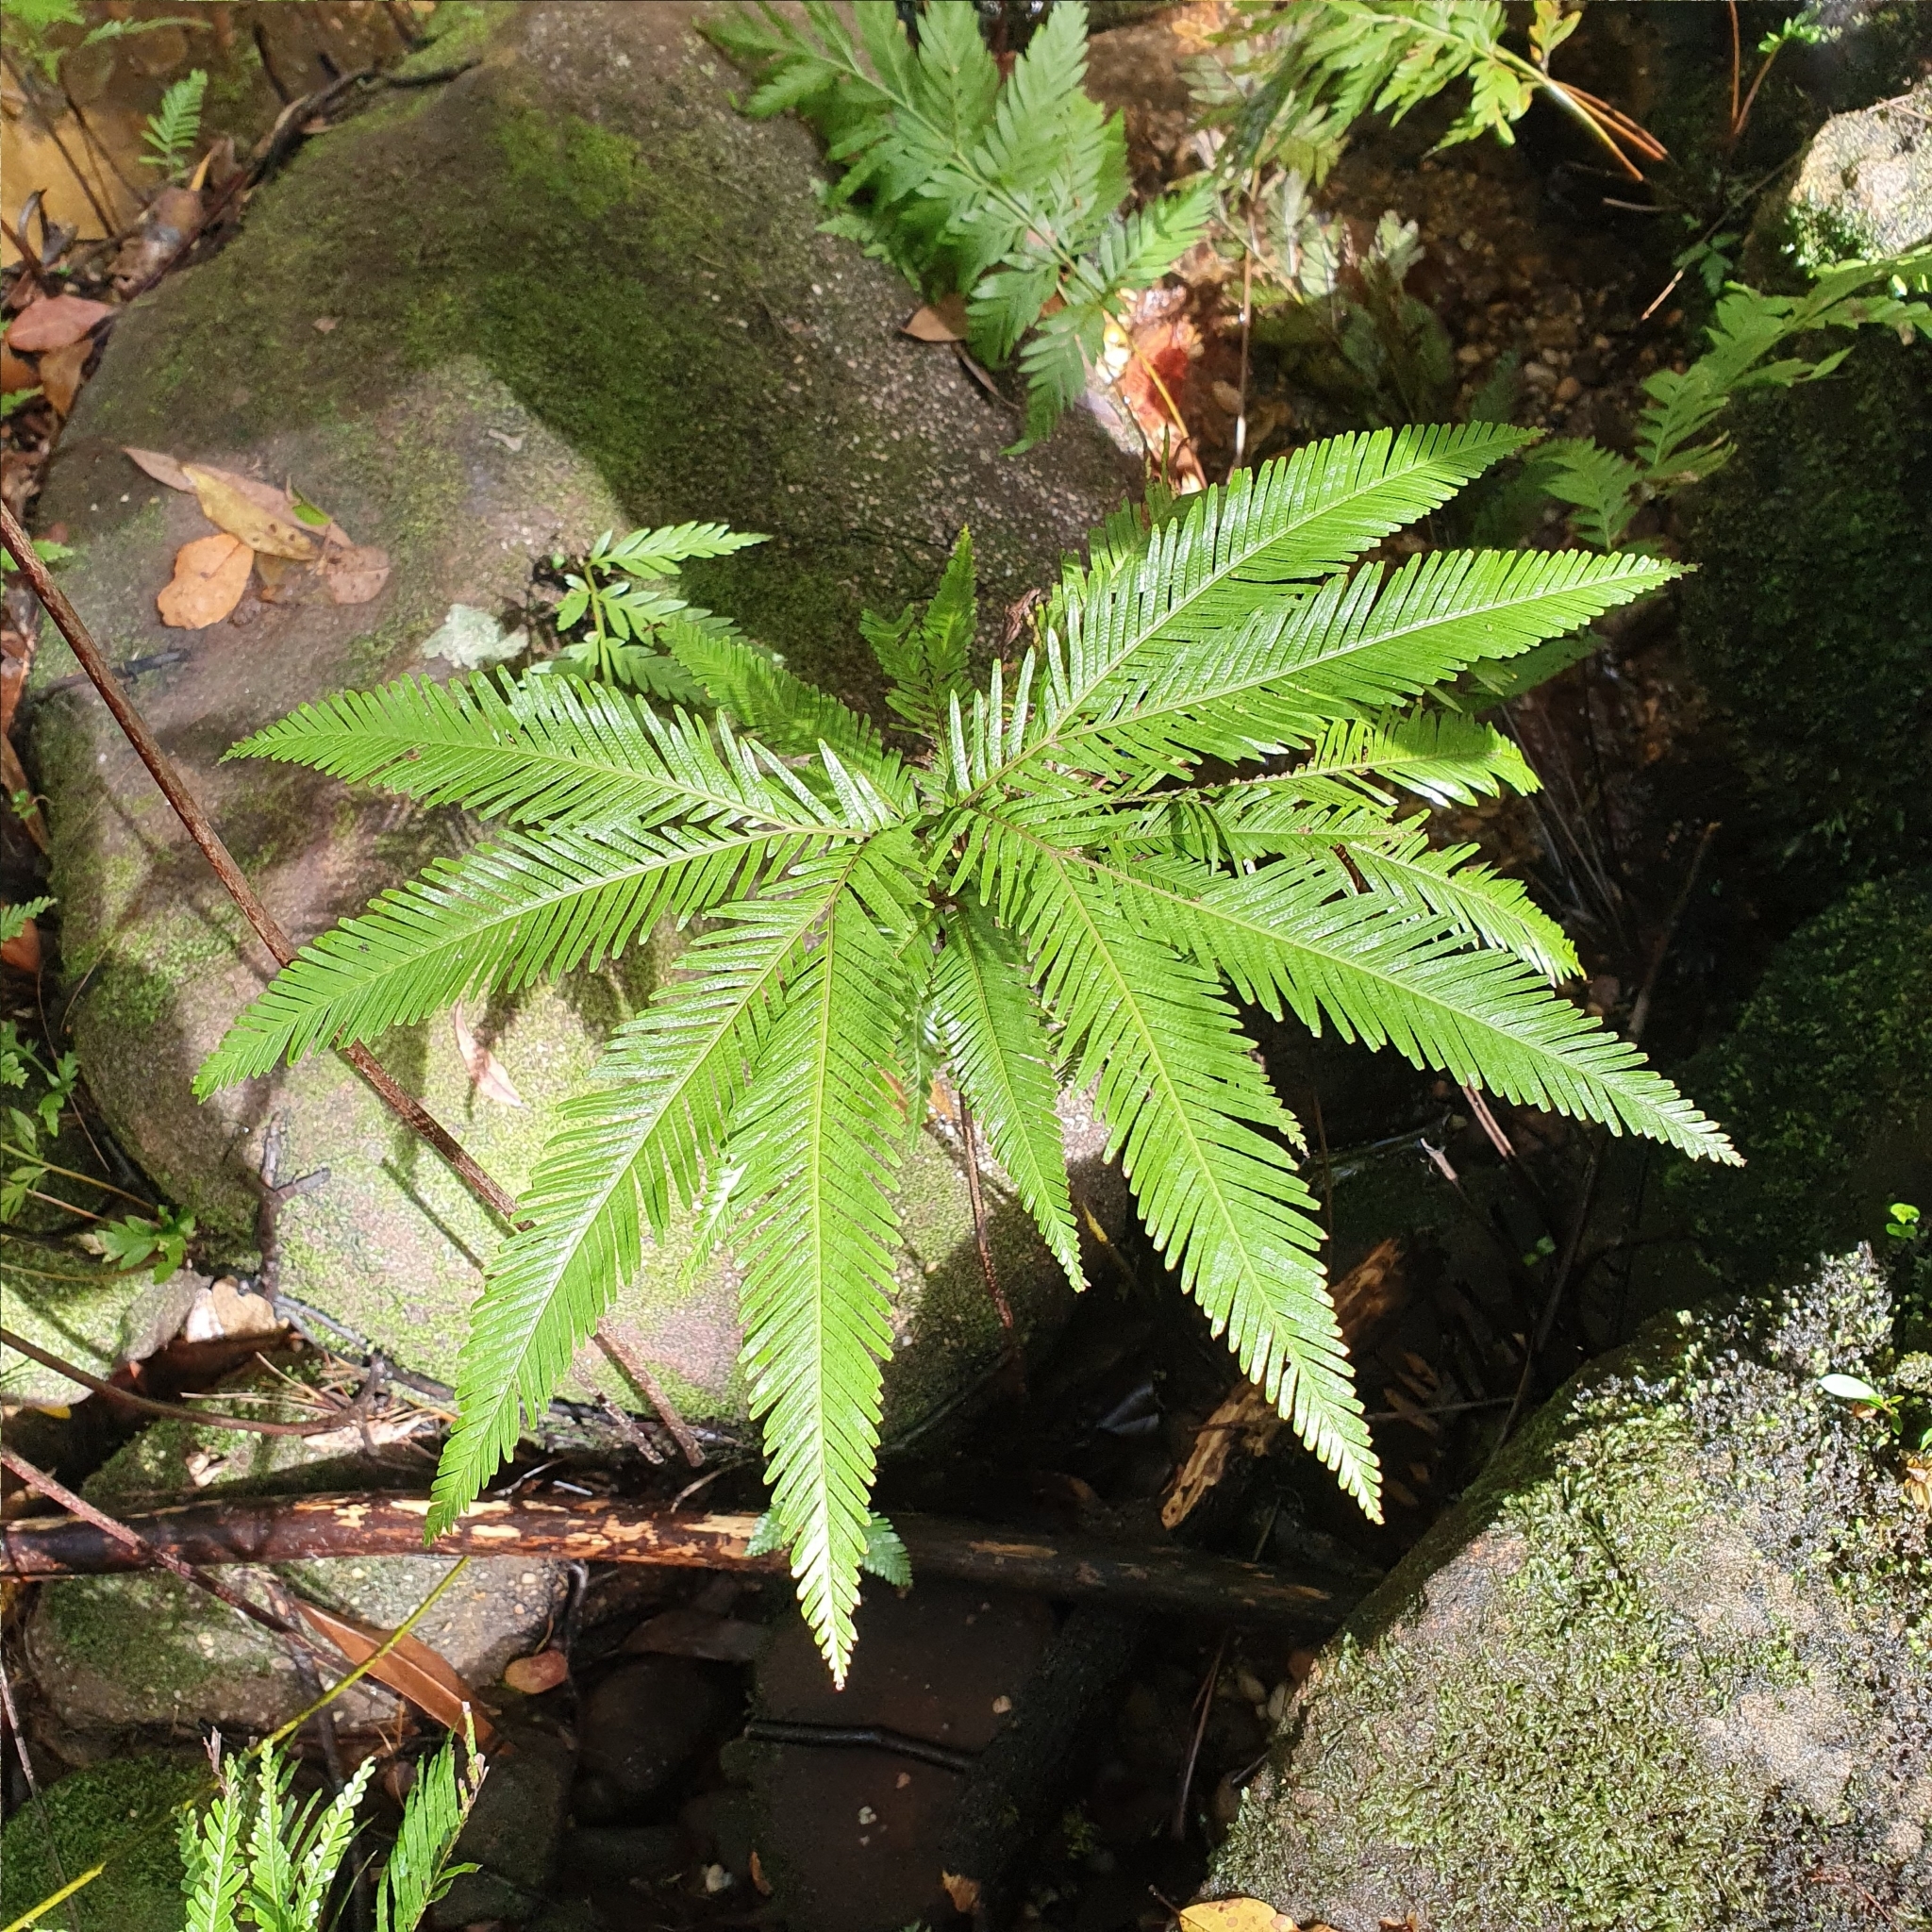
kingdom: Plantae
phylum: Tracheophyta
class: Polypodiopsida
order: Gleicheniales
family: Gleicheniaceae
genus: Sticherus
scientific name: Sticherus flabellatus
